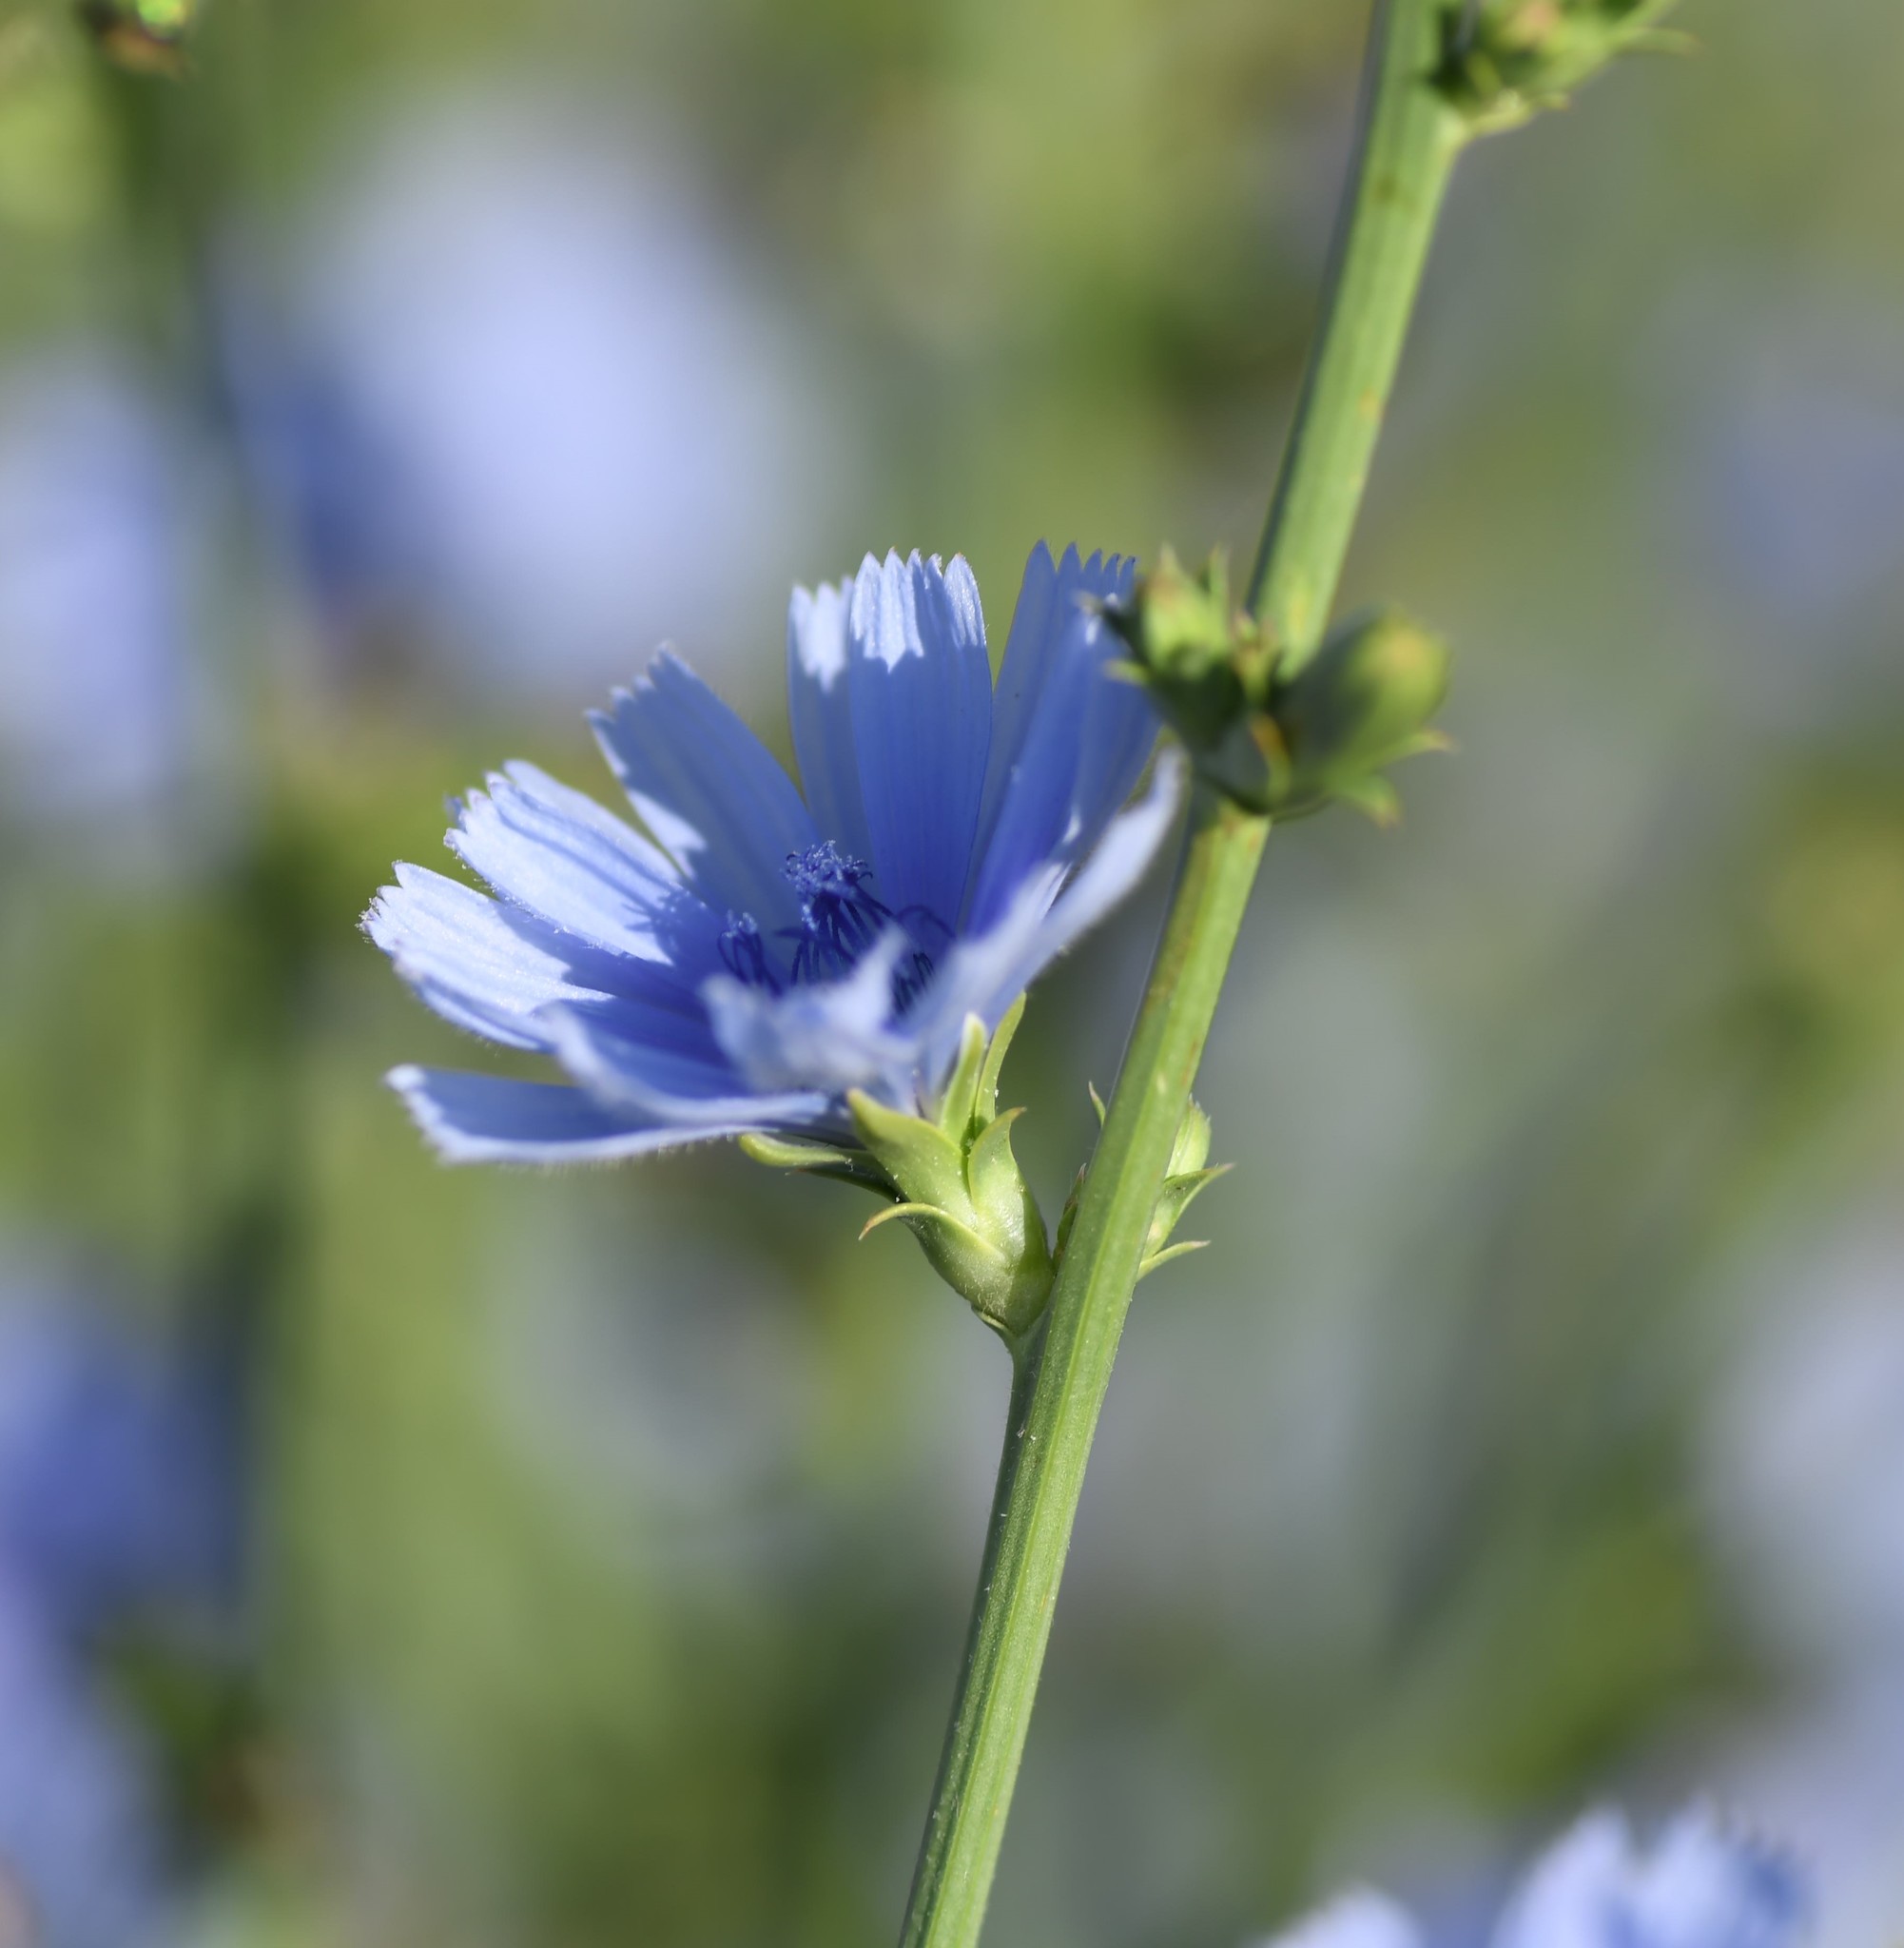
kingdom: Plantae
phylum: Tracheophyta
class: Magnoliopsida
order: Asterales
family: Asteraceae
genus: Cichorium
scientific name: Cichorium intybus
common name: Chicory
